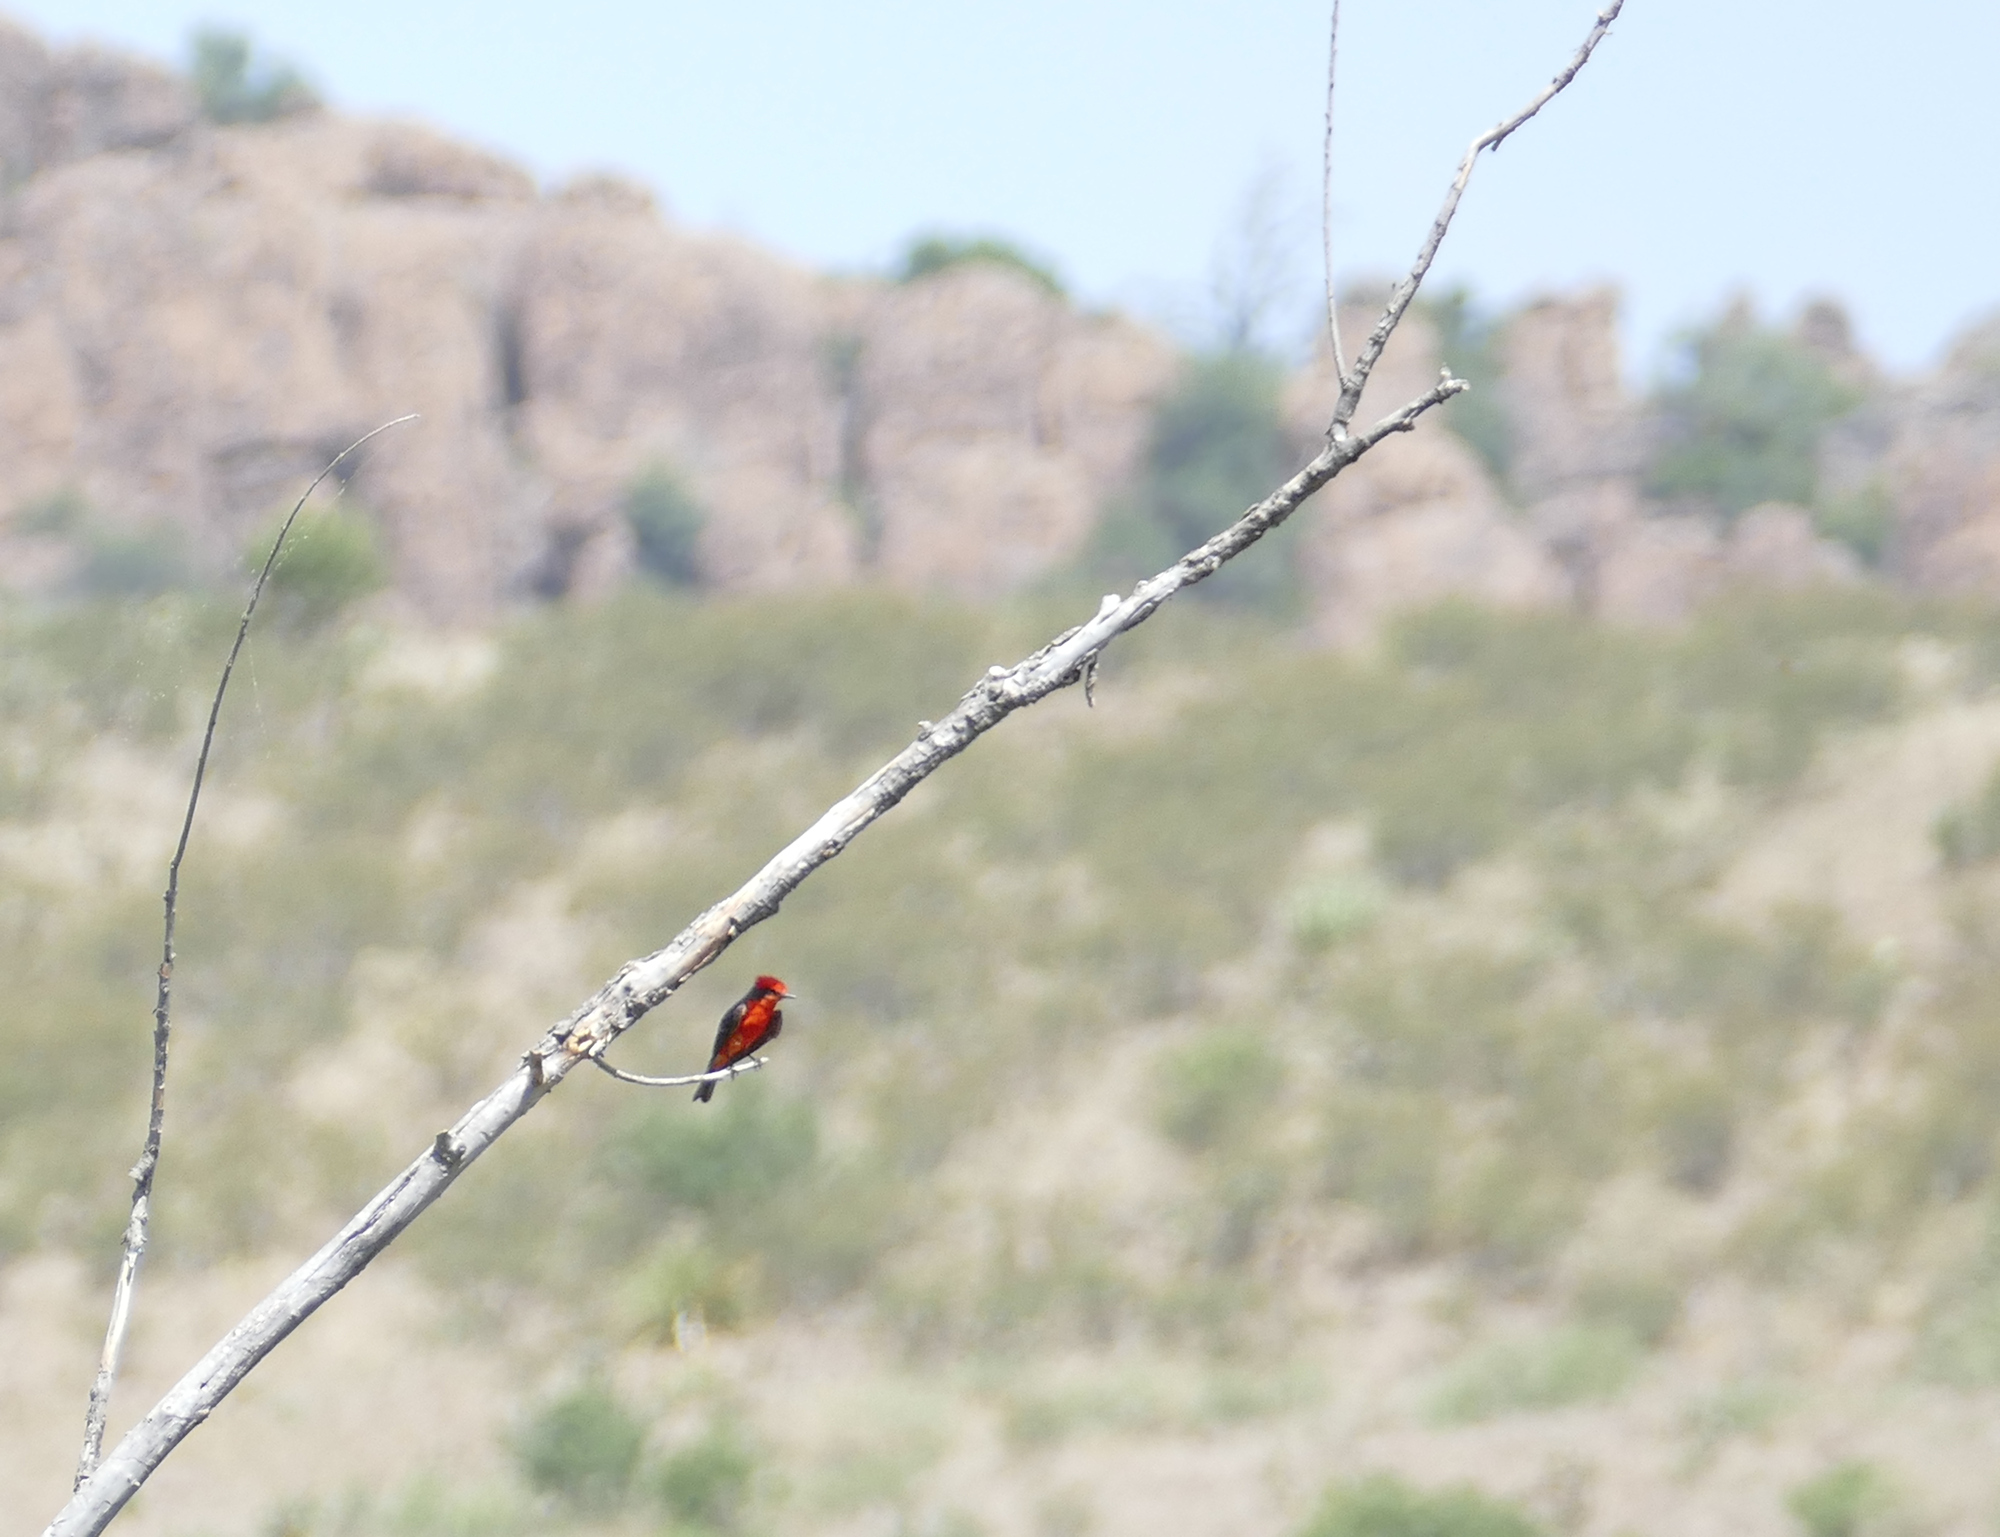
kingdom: Animalia
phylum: Chordata
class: Aves
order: Passeriformes
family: Tyrannidae
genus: Pyrocephalus
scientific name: Pyrocephalus rubinus
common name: Vermilion flycatcher
